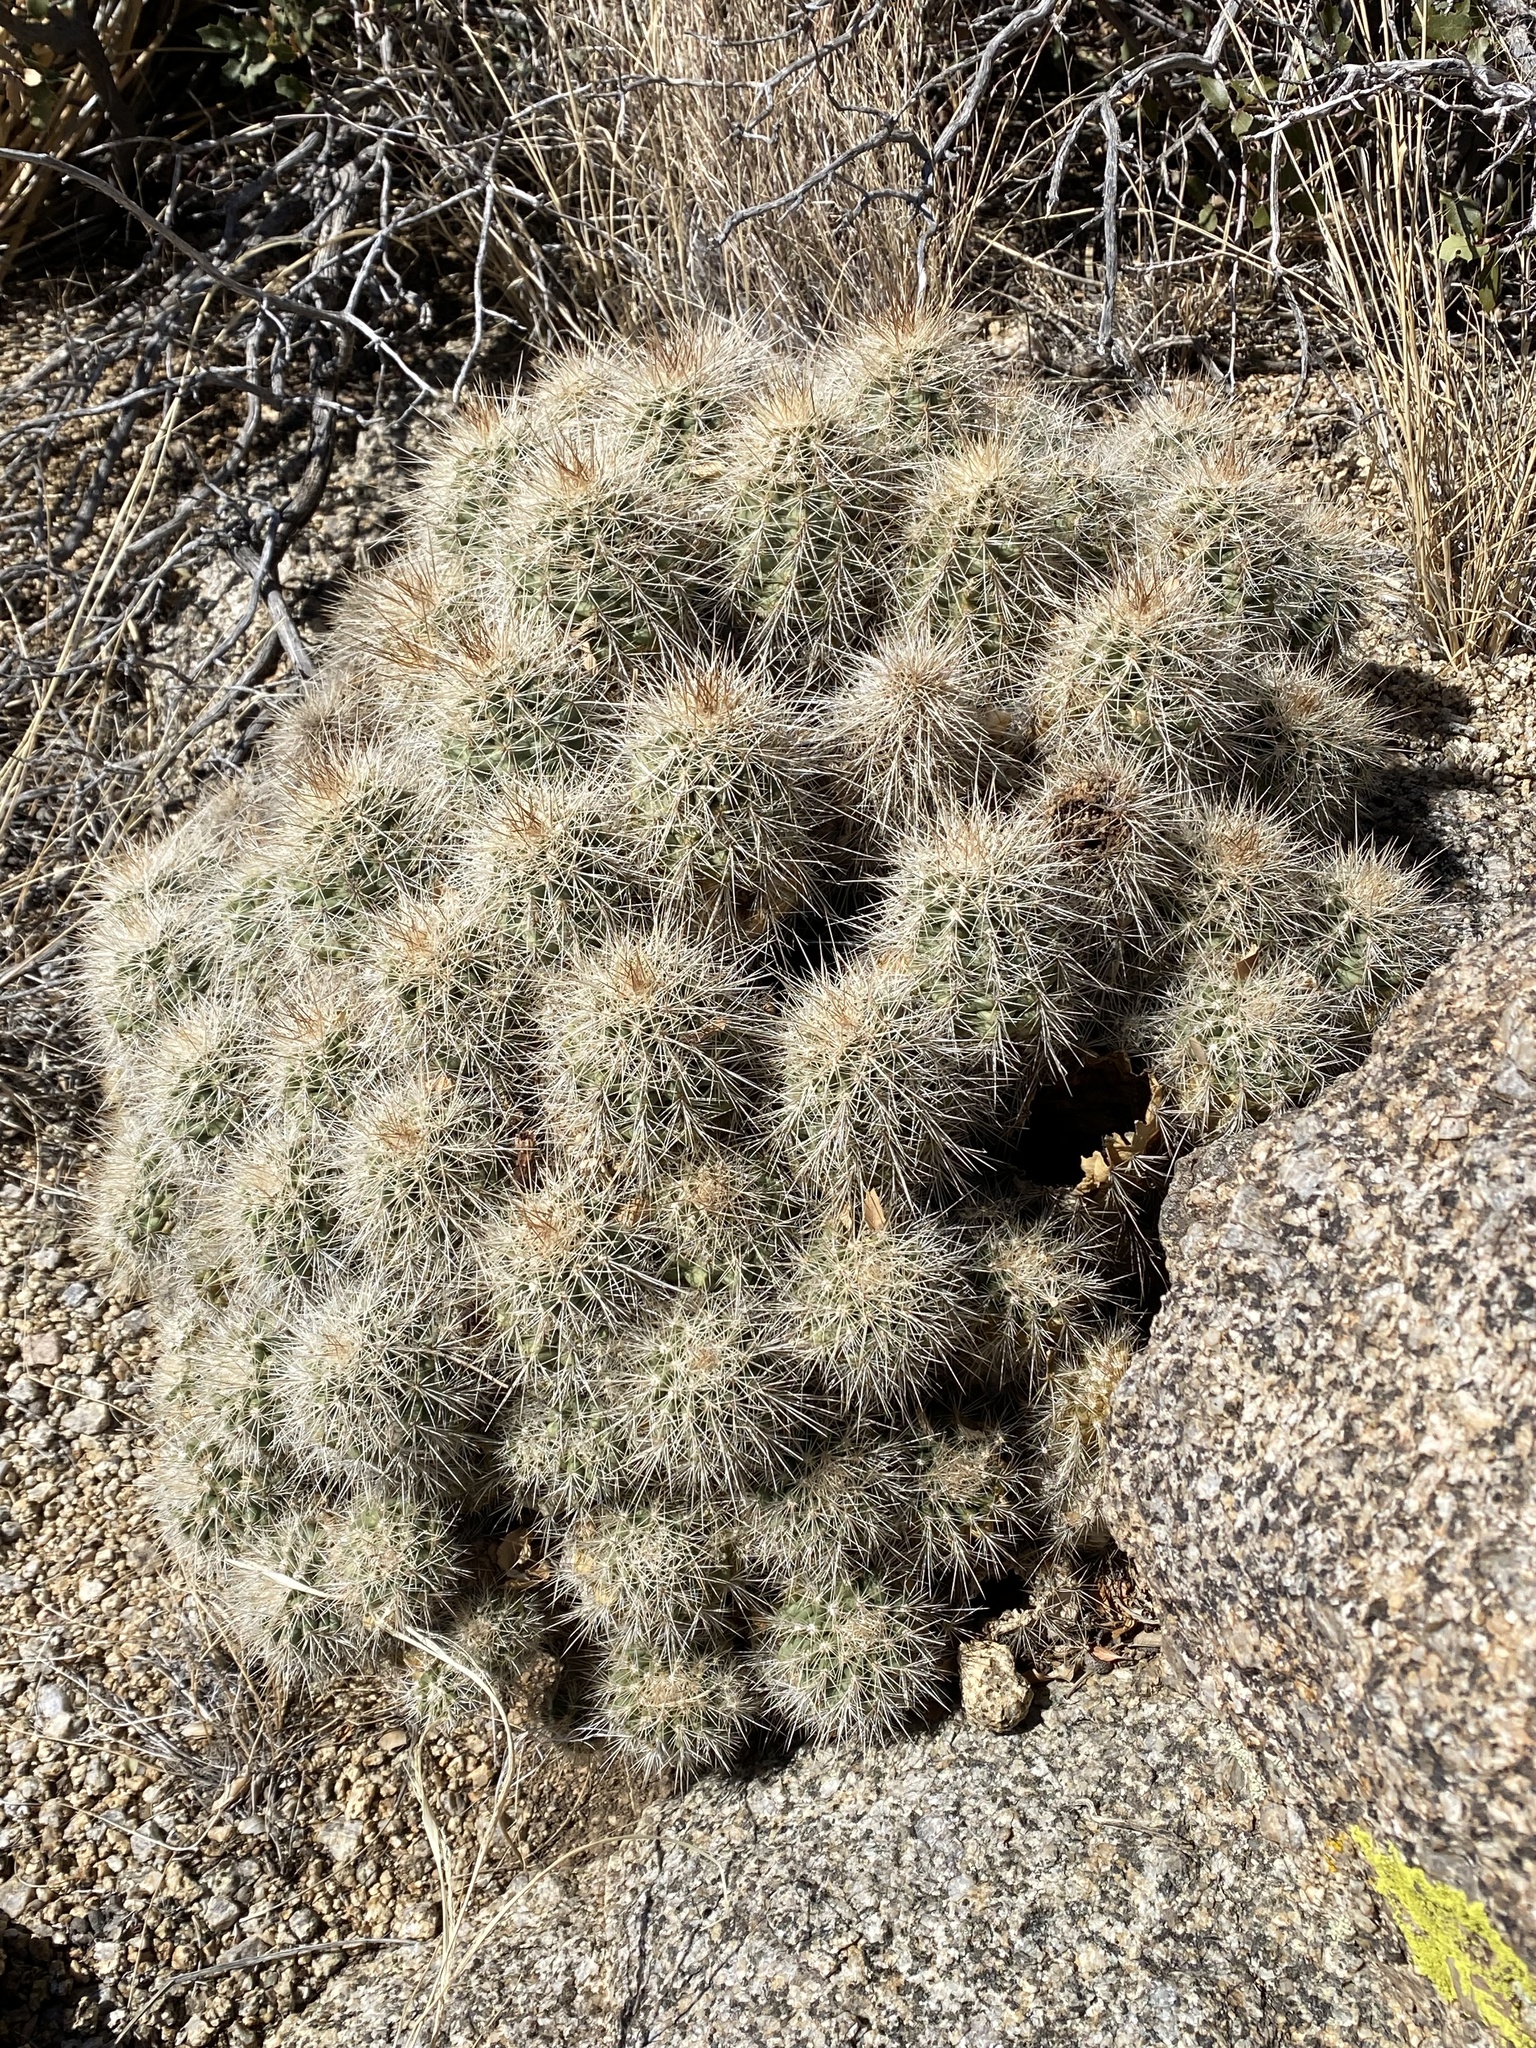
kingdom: Plantae
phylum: Tracheophyta
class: Magnoliopsida
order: Caryophyllales
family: Cactaceae
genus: Echinocereus
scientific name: Echinocereus coccineus
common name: Scarlet hedgehog cactus
